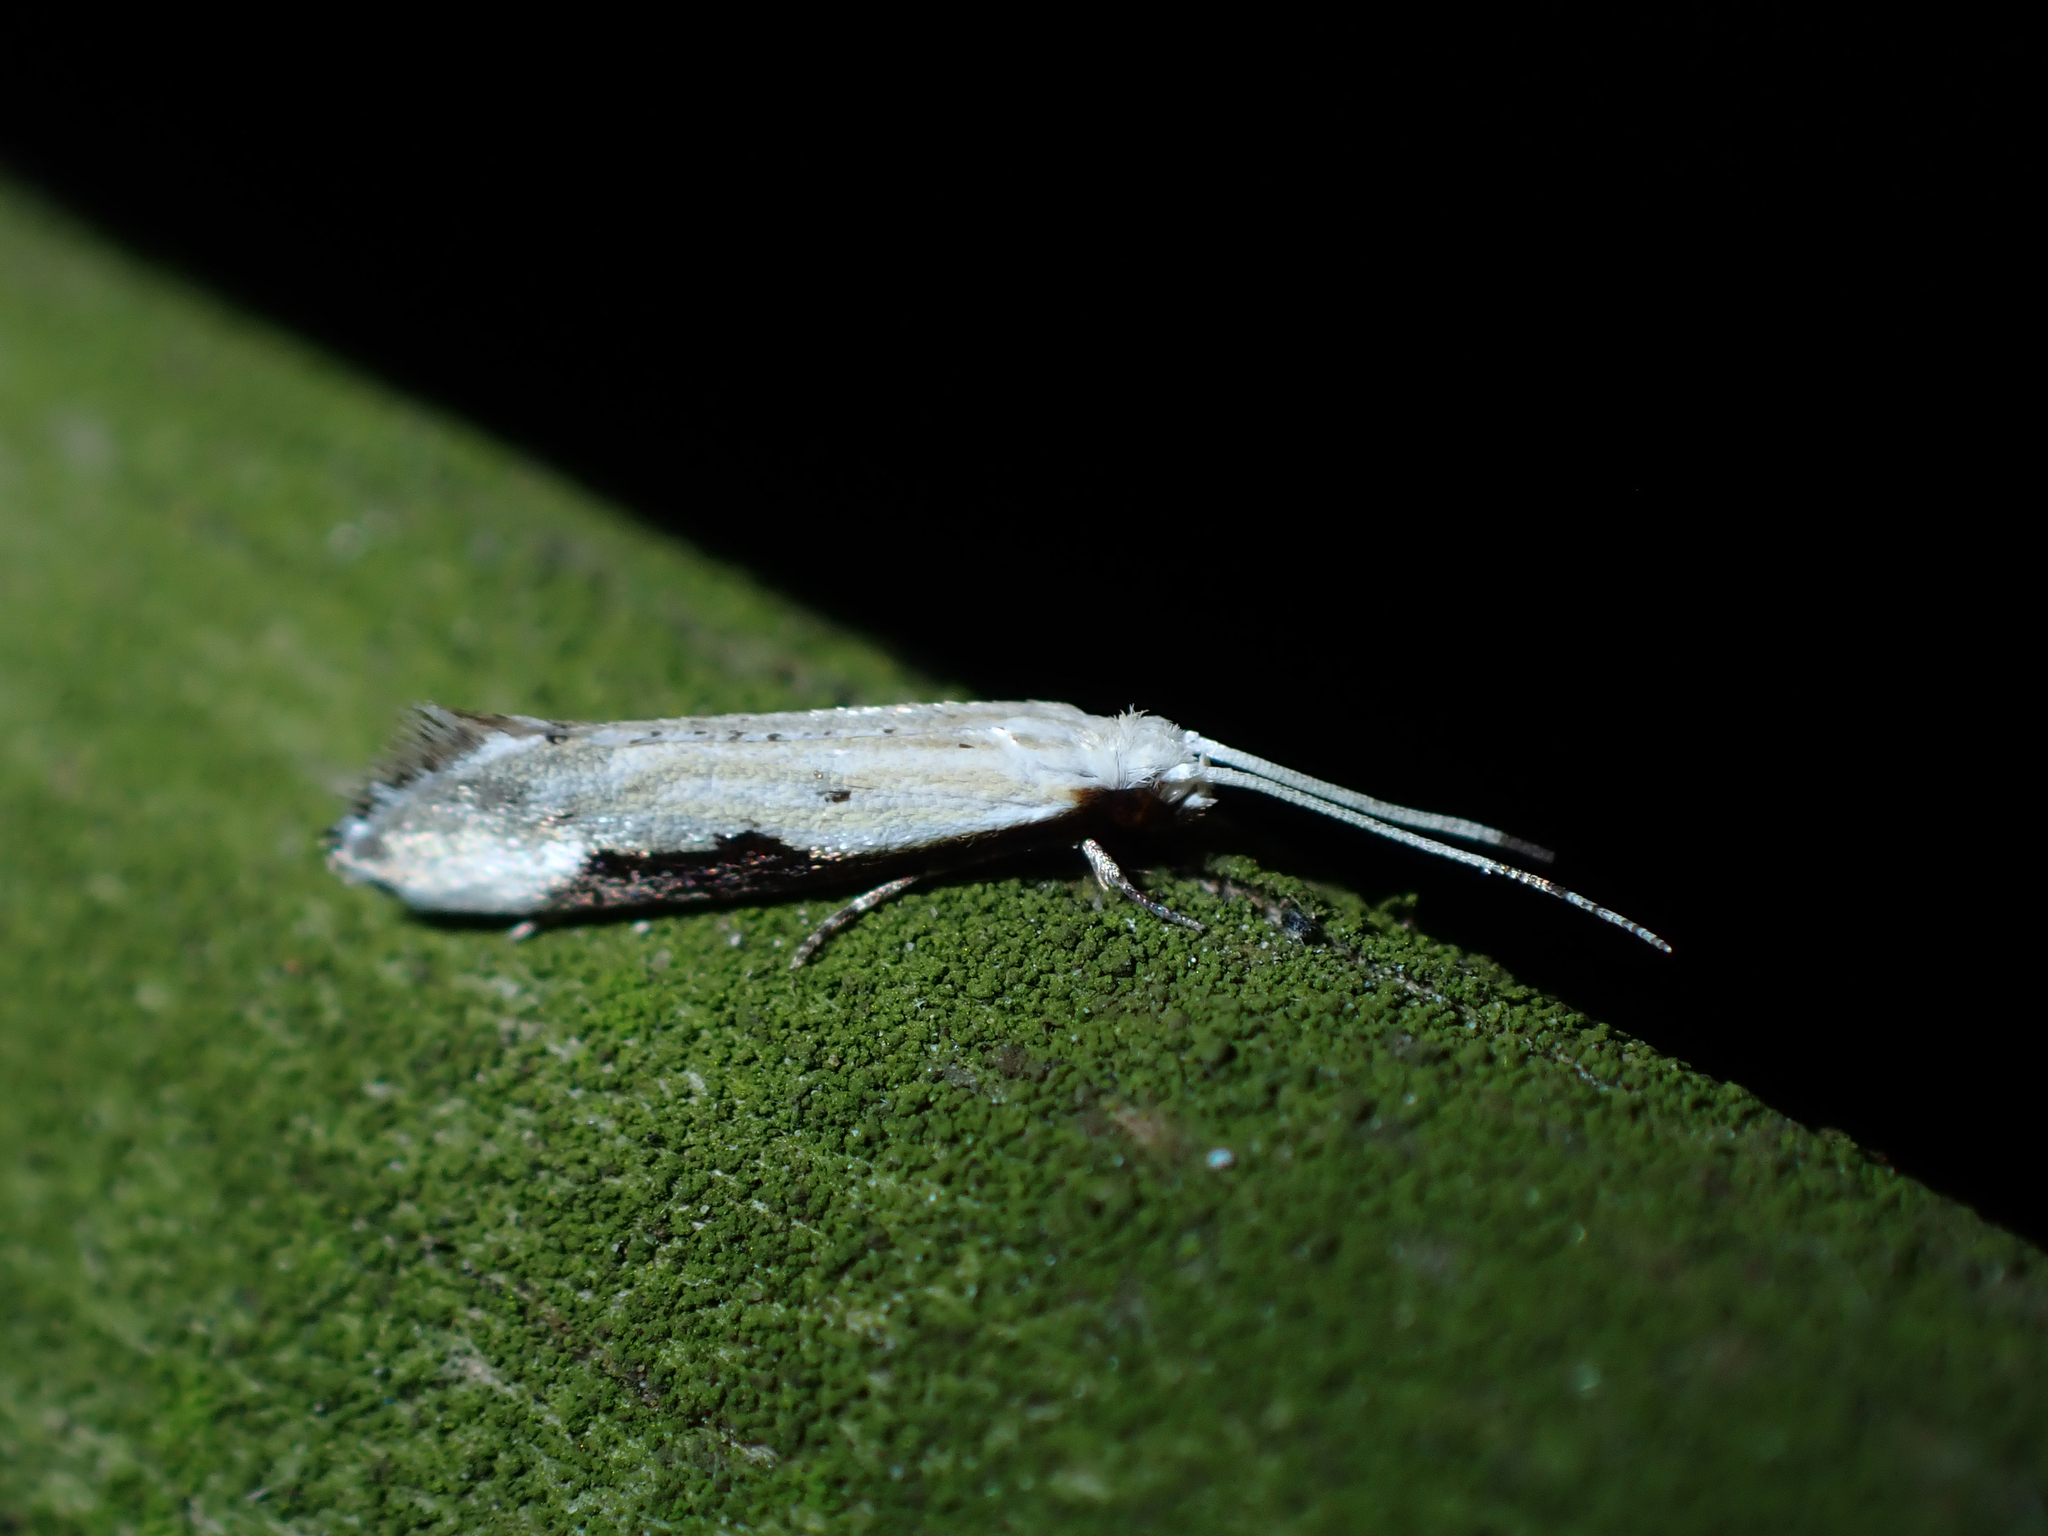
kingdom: Animalia
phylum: Arthropoda
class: Insecta
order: Lepidoptera
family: Tineidae
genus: Sagephora
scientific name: Sagephora phortegella
